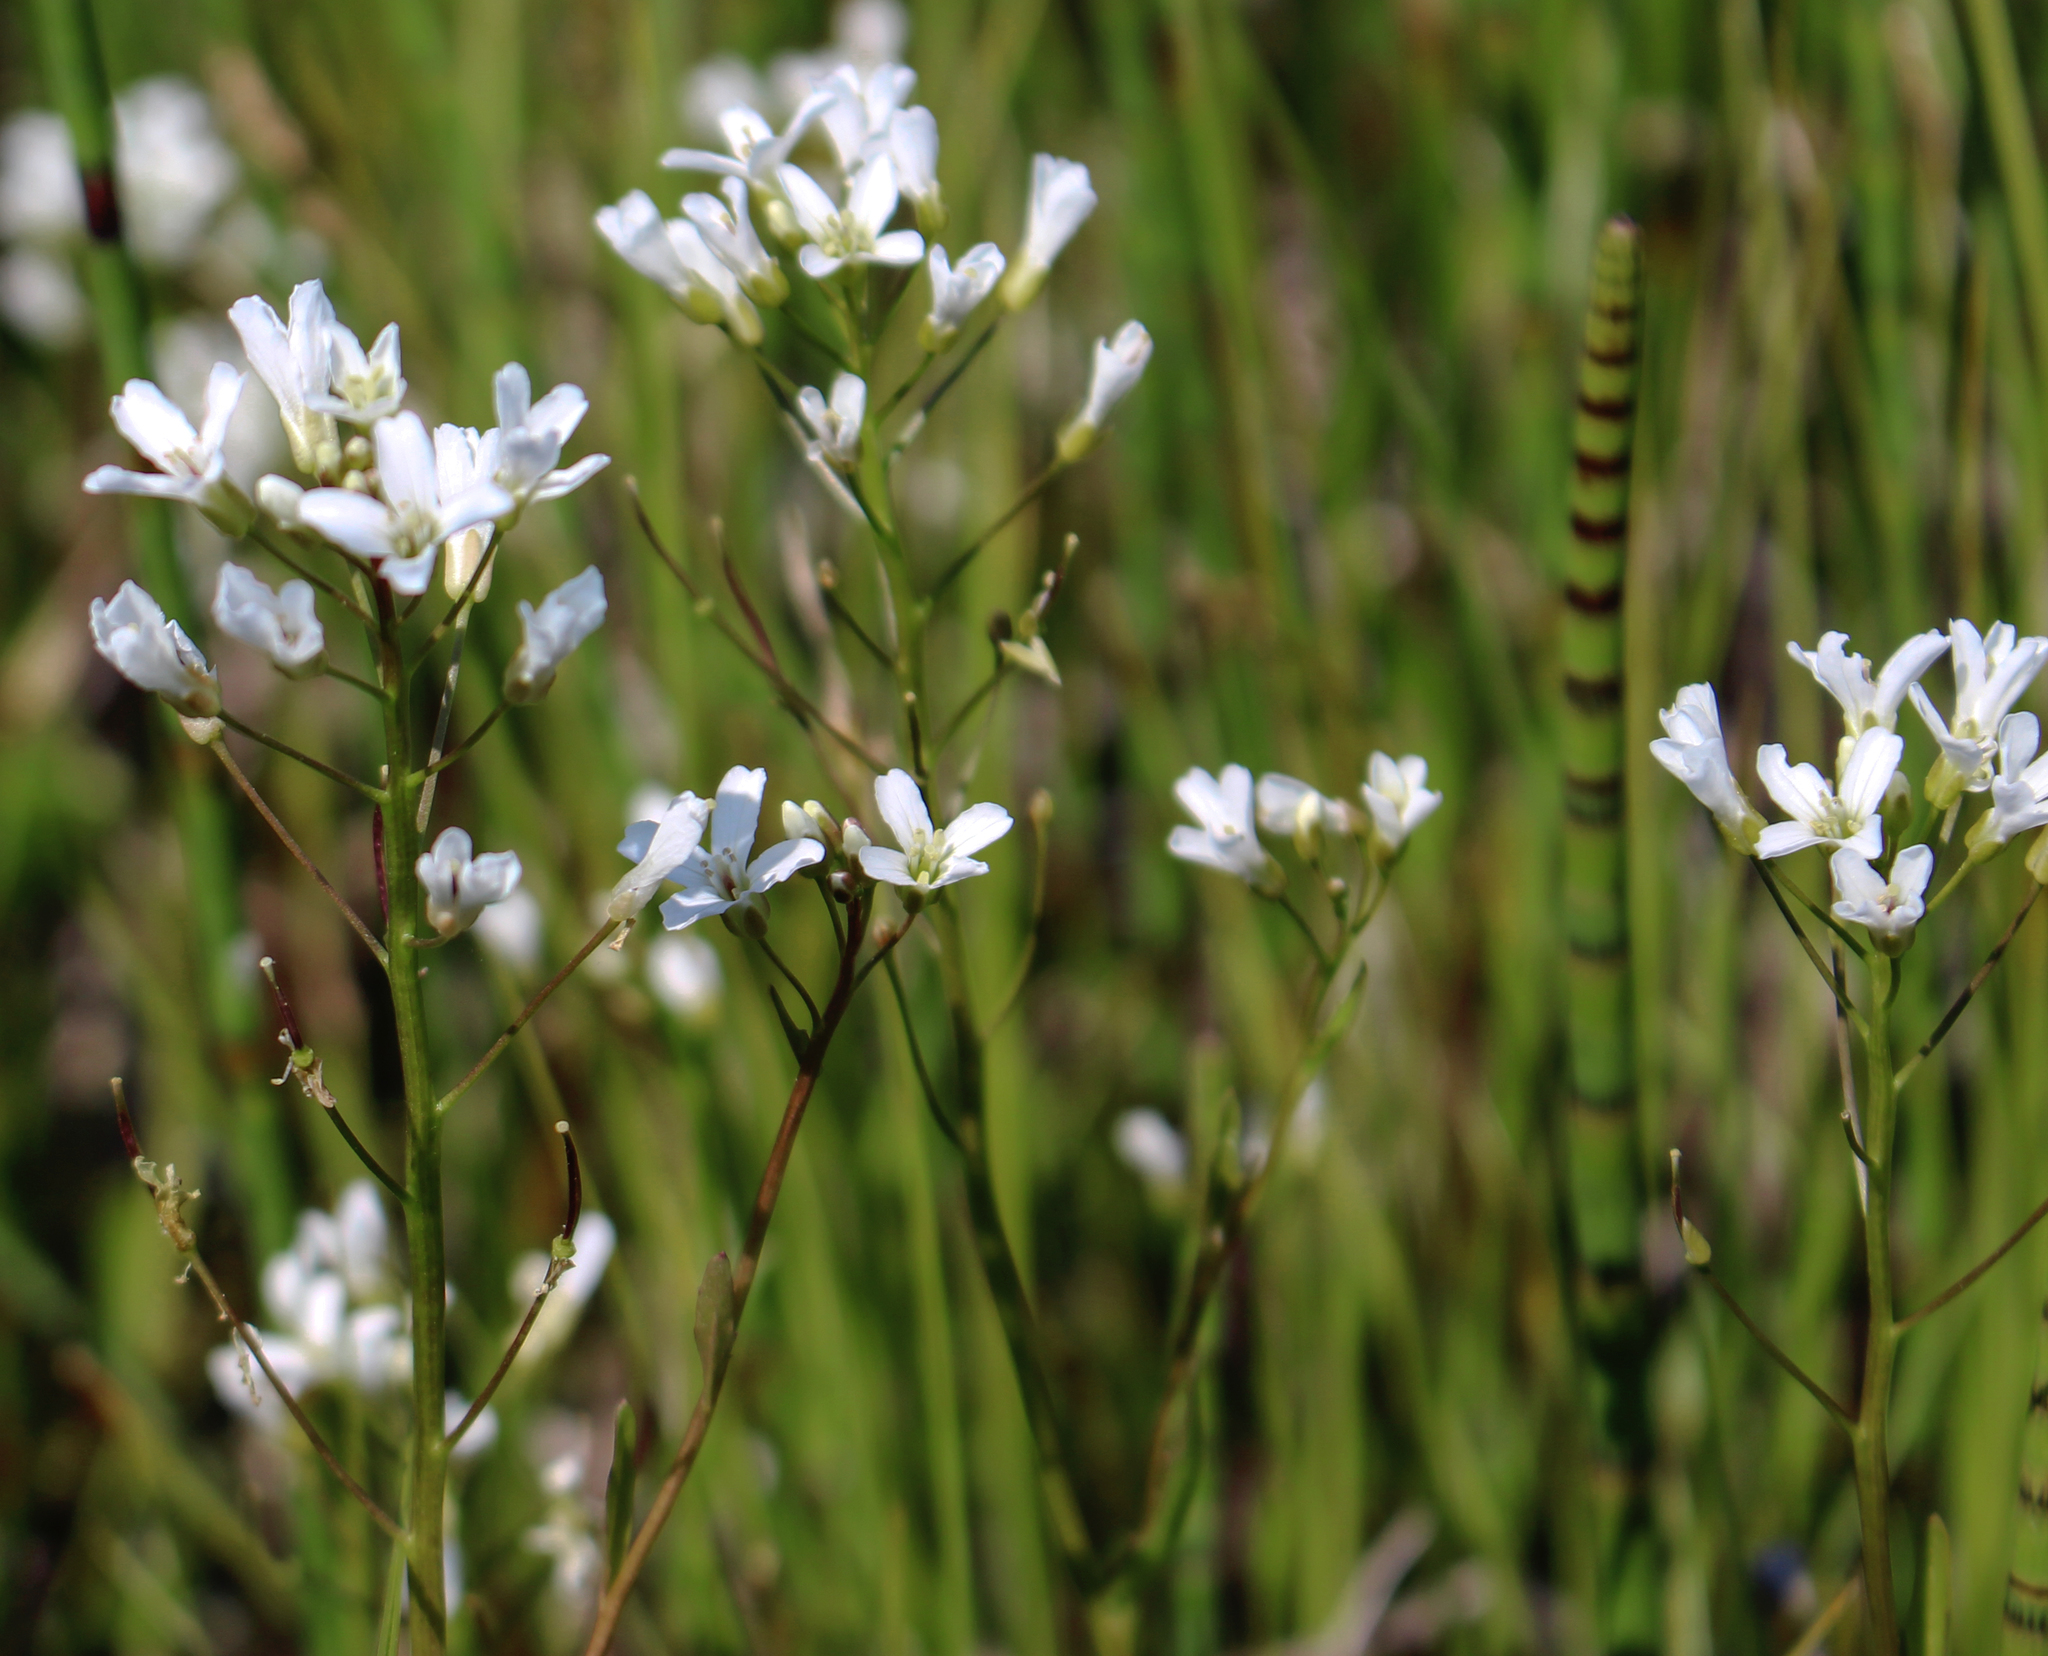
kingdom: Plantae
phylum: Tracheophyta
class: Magnoliopsida
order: Brassicales
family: Brassicaceae
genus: Cardamine
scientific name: Cardamine bulbosa
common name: Spring cress
